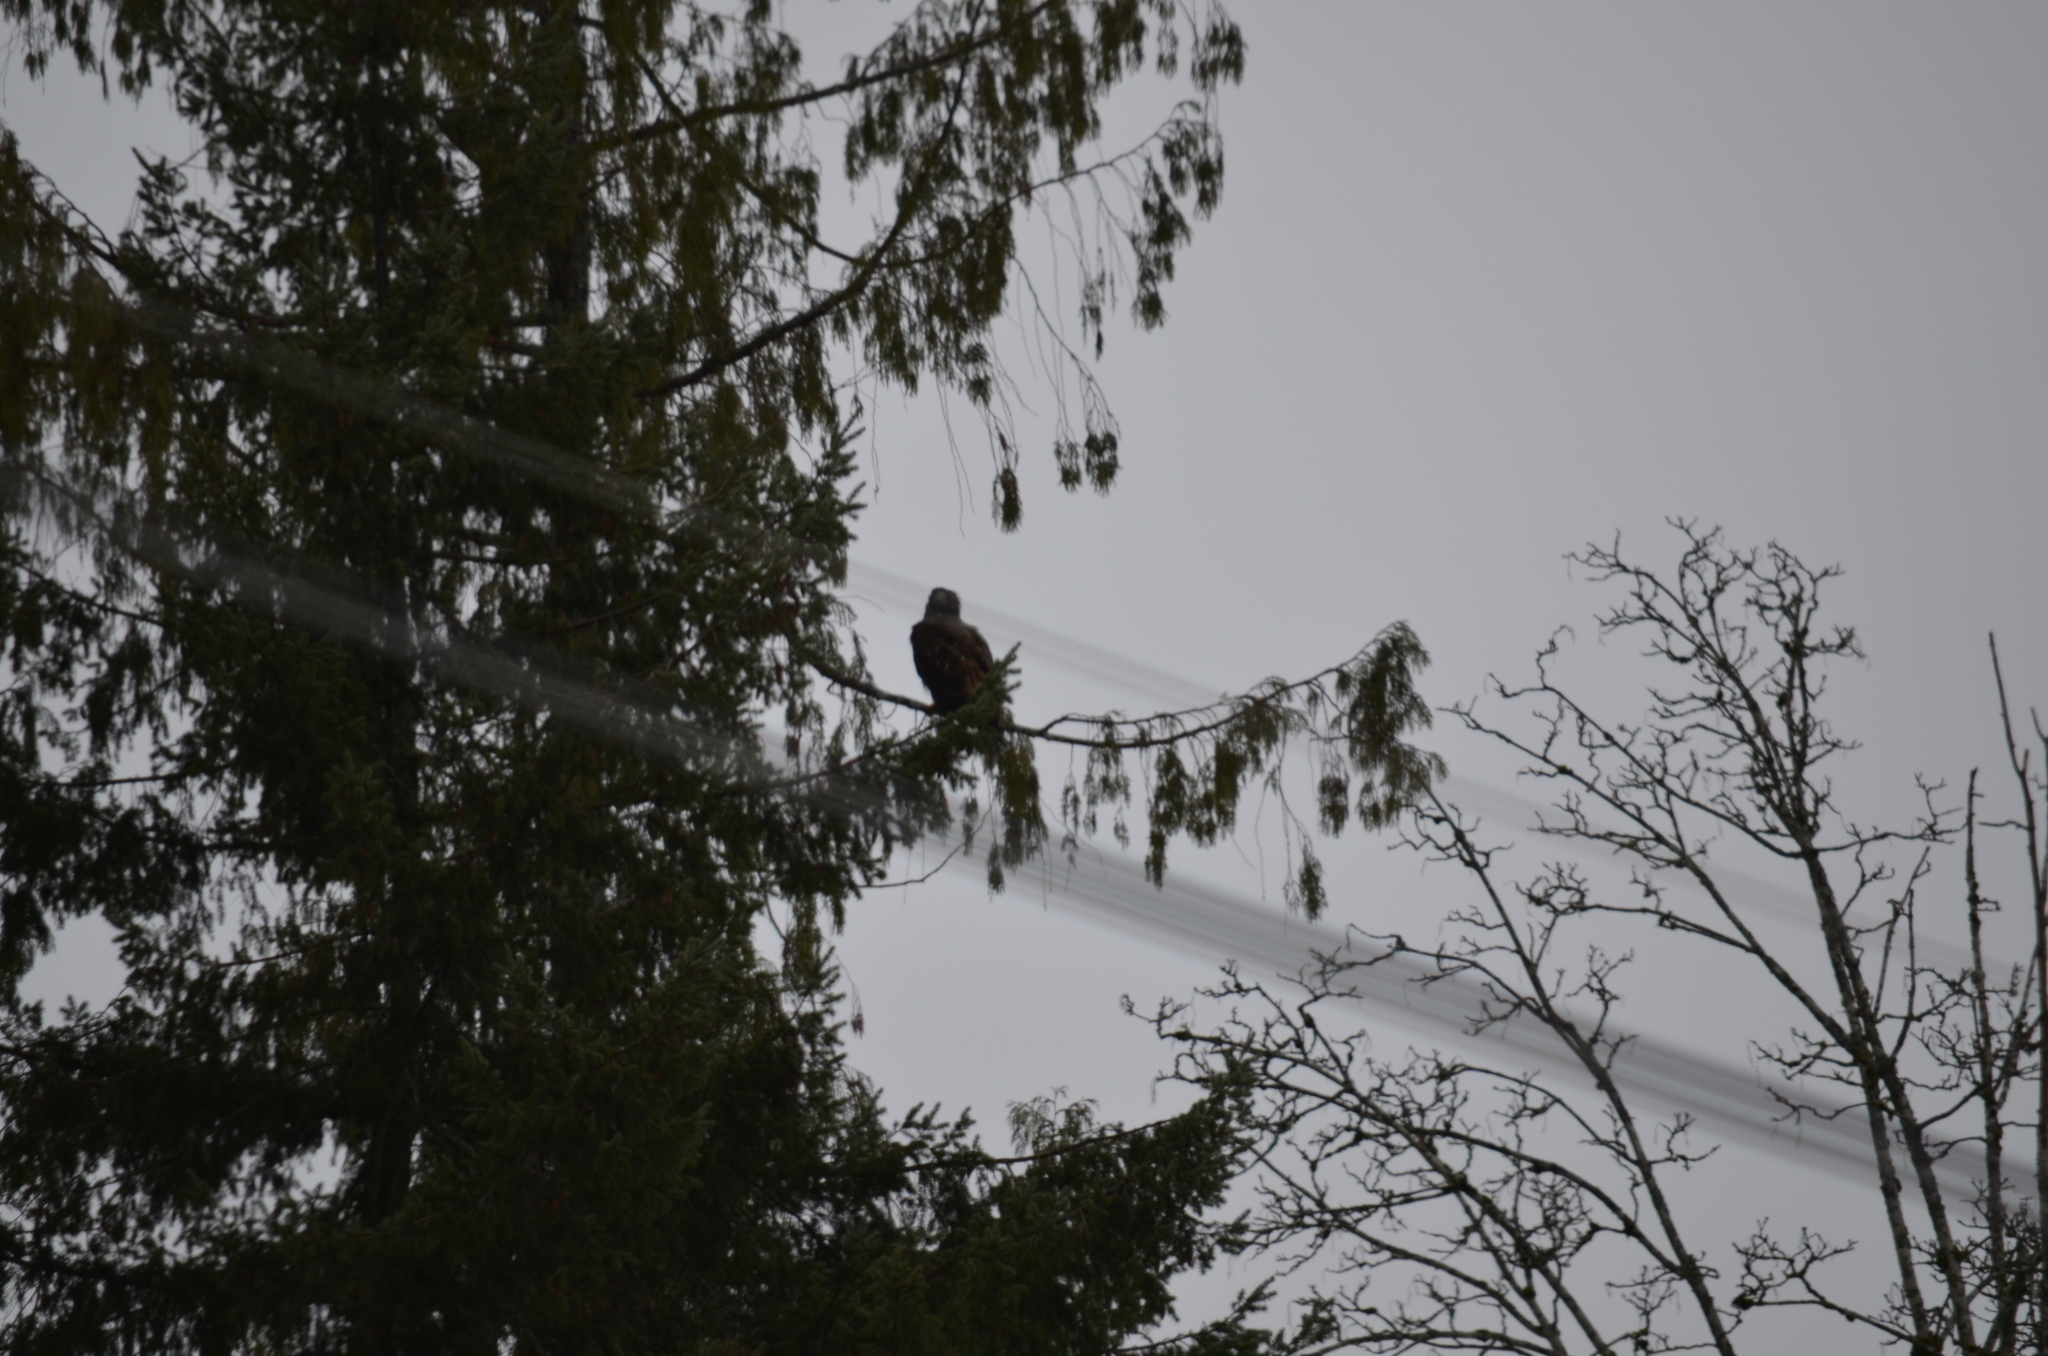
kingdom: Animalia
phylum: Chordata
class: Aves
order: Accipitriformes
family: Accipitridae
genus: Haliaeetus
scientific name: Haliaeetus leucocephalus
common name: Bald eagle
